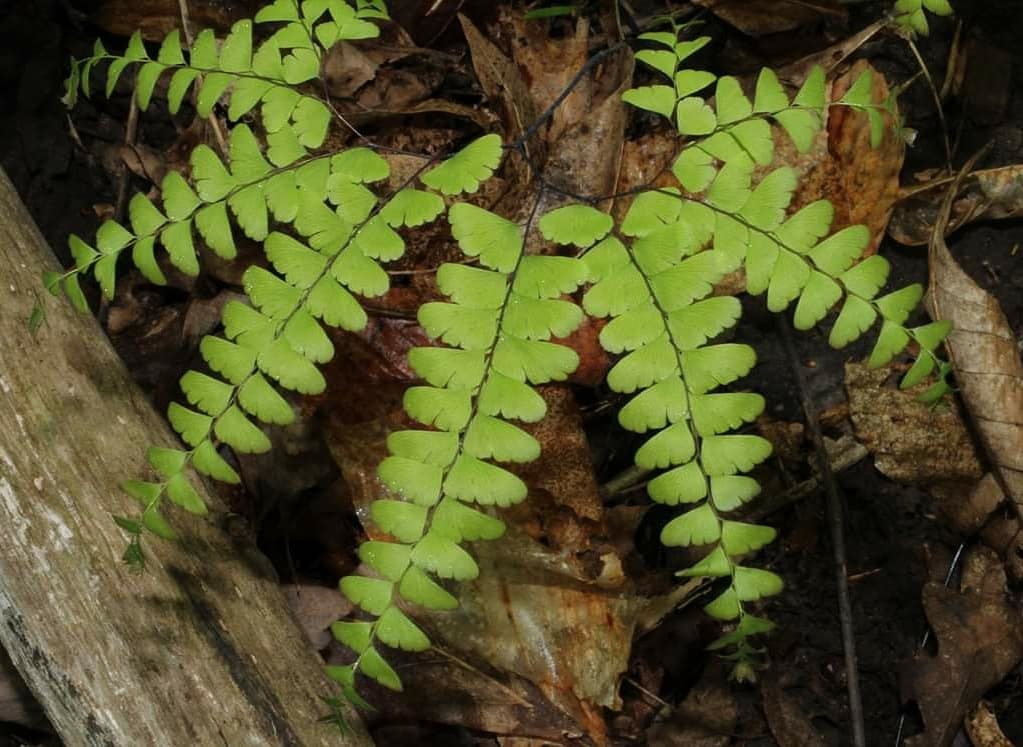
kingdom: Plantae
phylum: Tracheophyta
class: Polypodiopsida
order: Polypodiales
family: Pteridaceae
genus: Adiantum
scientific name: Adiantum pedatum
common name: Five-finger fern
